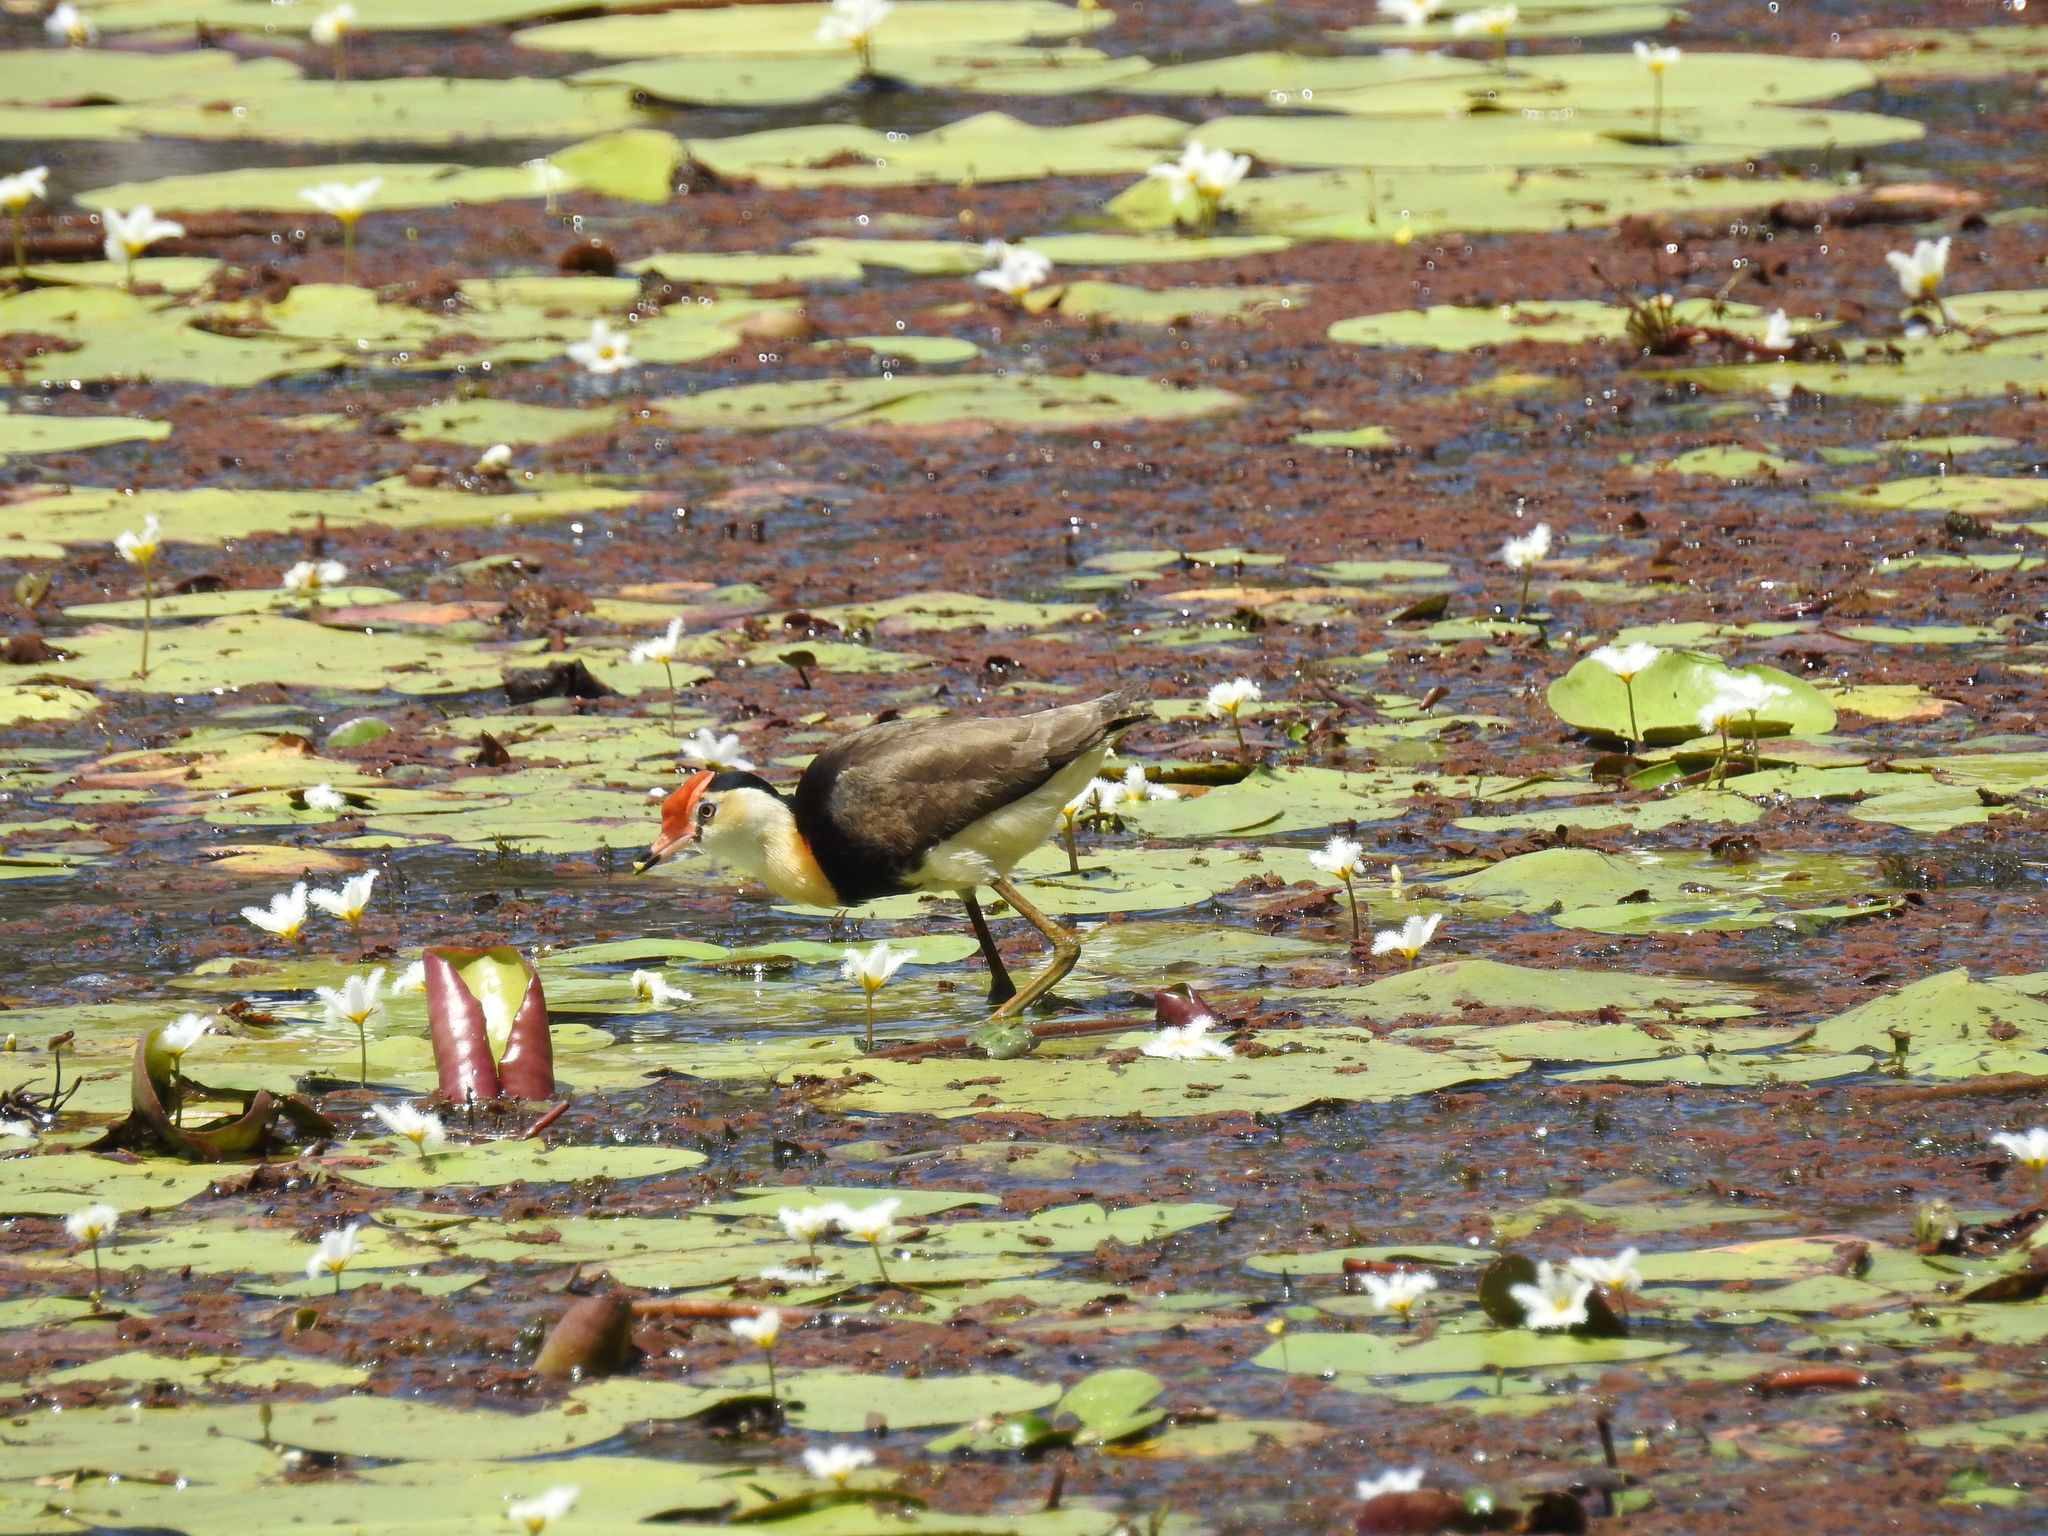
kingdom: Animalia
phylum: Chordata
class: Aves
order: Charadriiformes
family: Jacanidae
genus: Irediparra
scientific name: Irediparra gallinacea
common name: Comb-crested jacana
